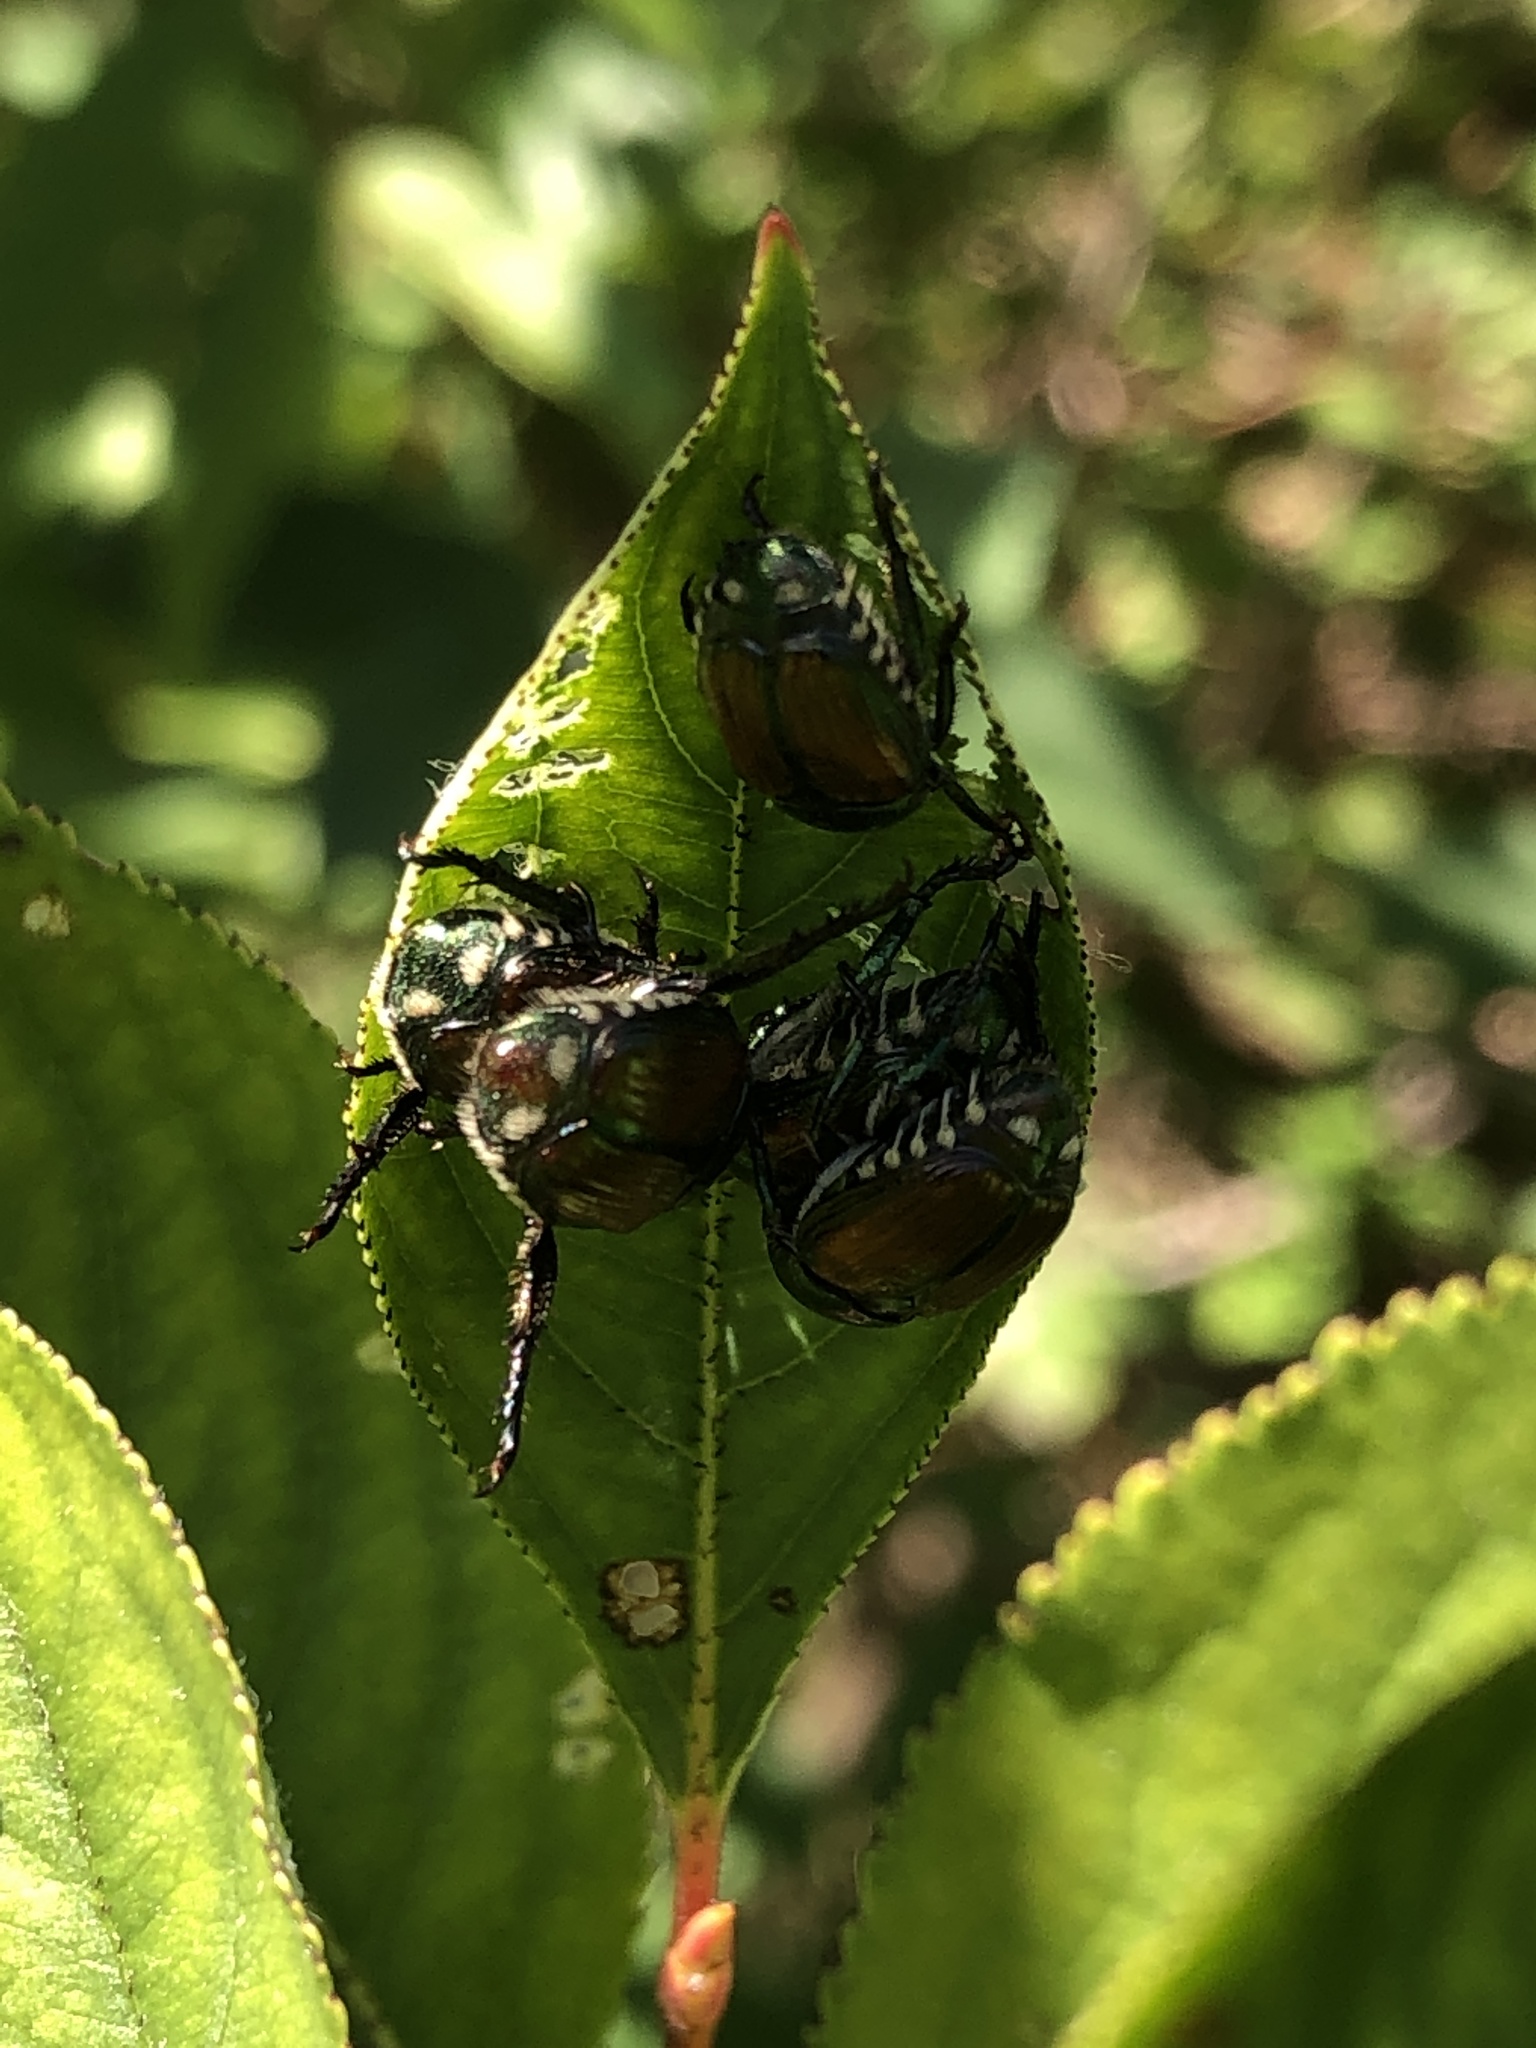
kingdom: Animalia
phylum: Arthropoda
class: Insecta
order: Coleoptera
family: Scarabaeidae
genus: Popillia
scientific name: Popillia japonica
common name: Japanese beetle
